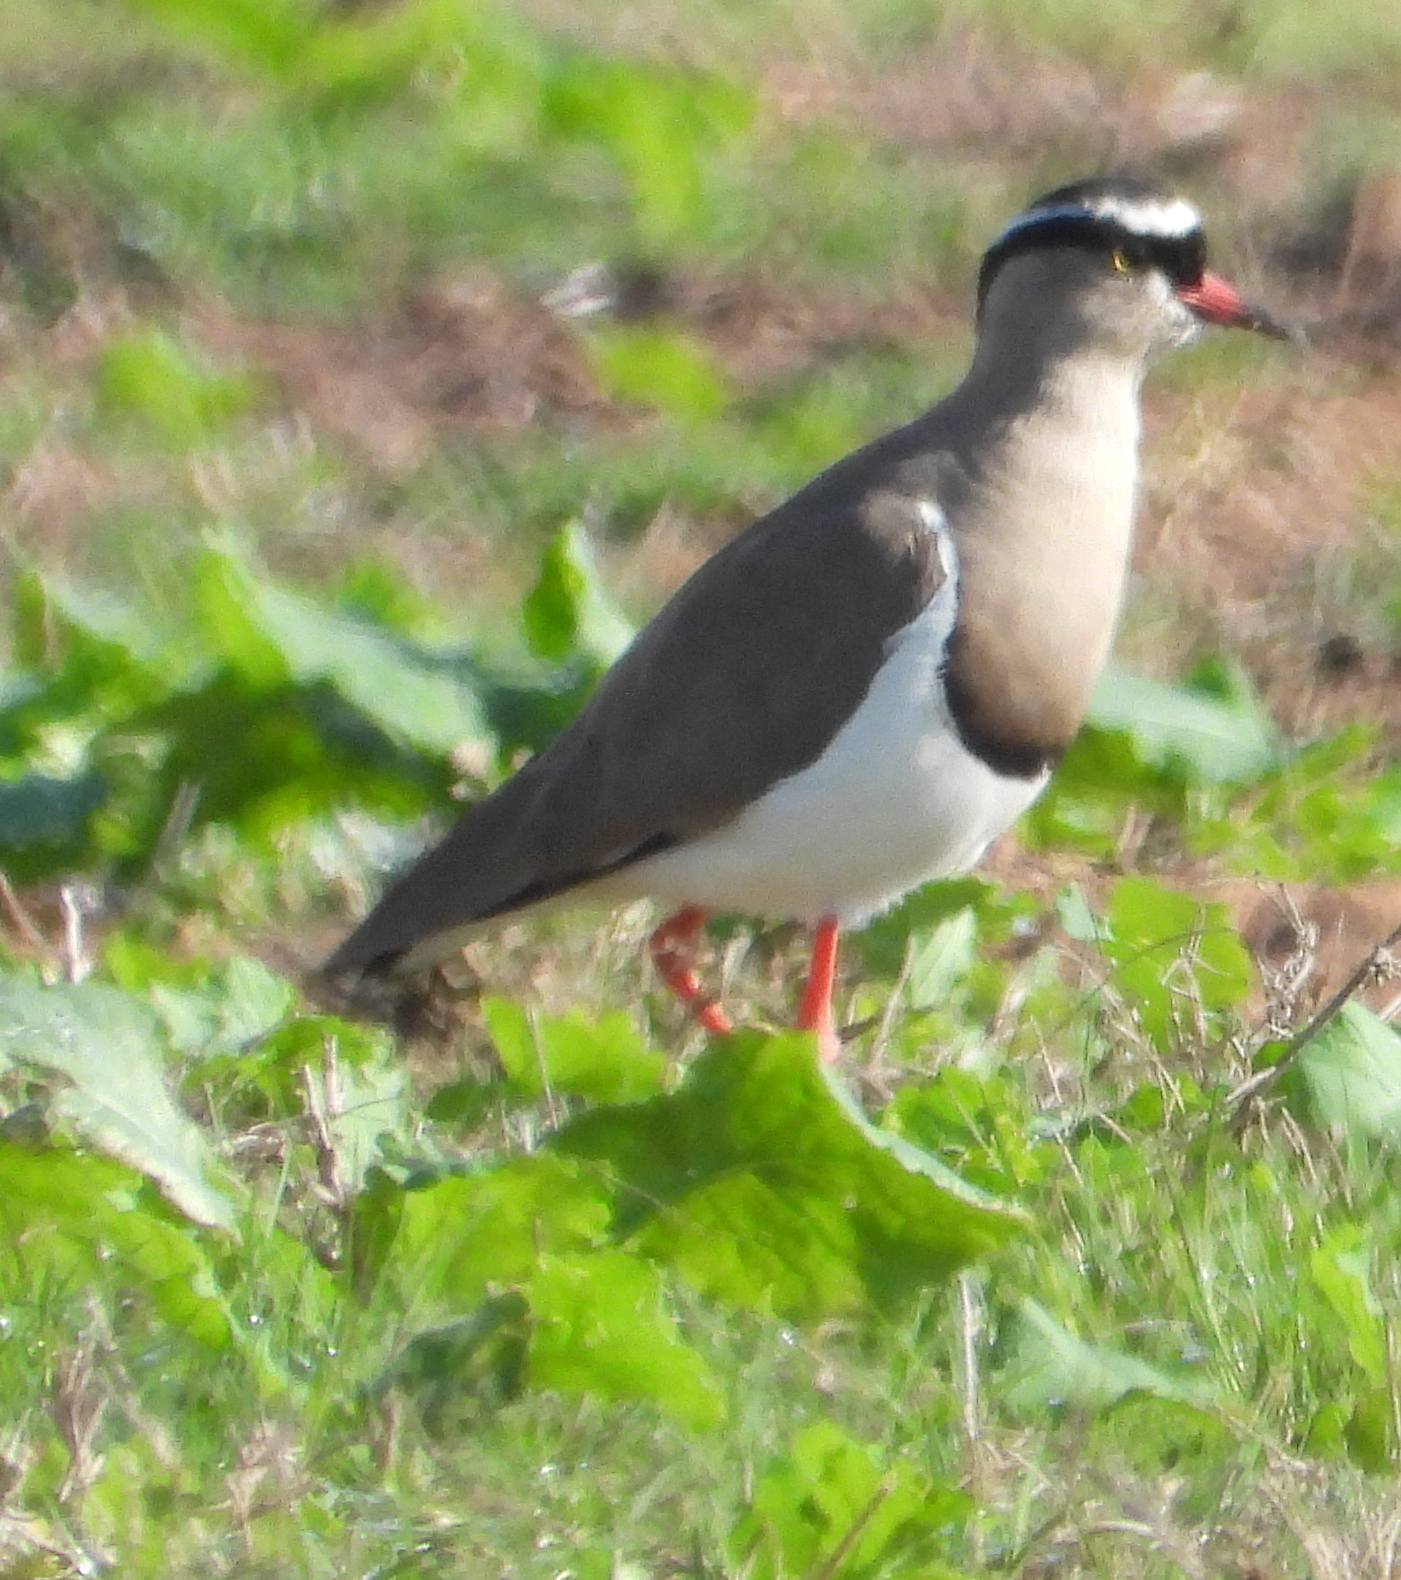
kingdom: Animalia
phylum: Chordata
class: Aves
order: Charadriiformes
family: Charadriidae
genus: Vanellus
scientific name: Vanellus coronatus
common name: Crowned lapwing
